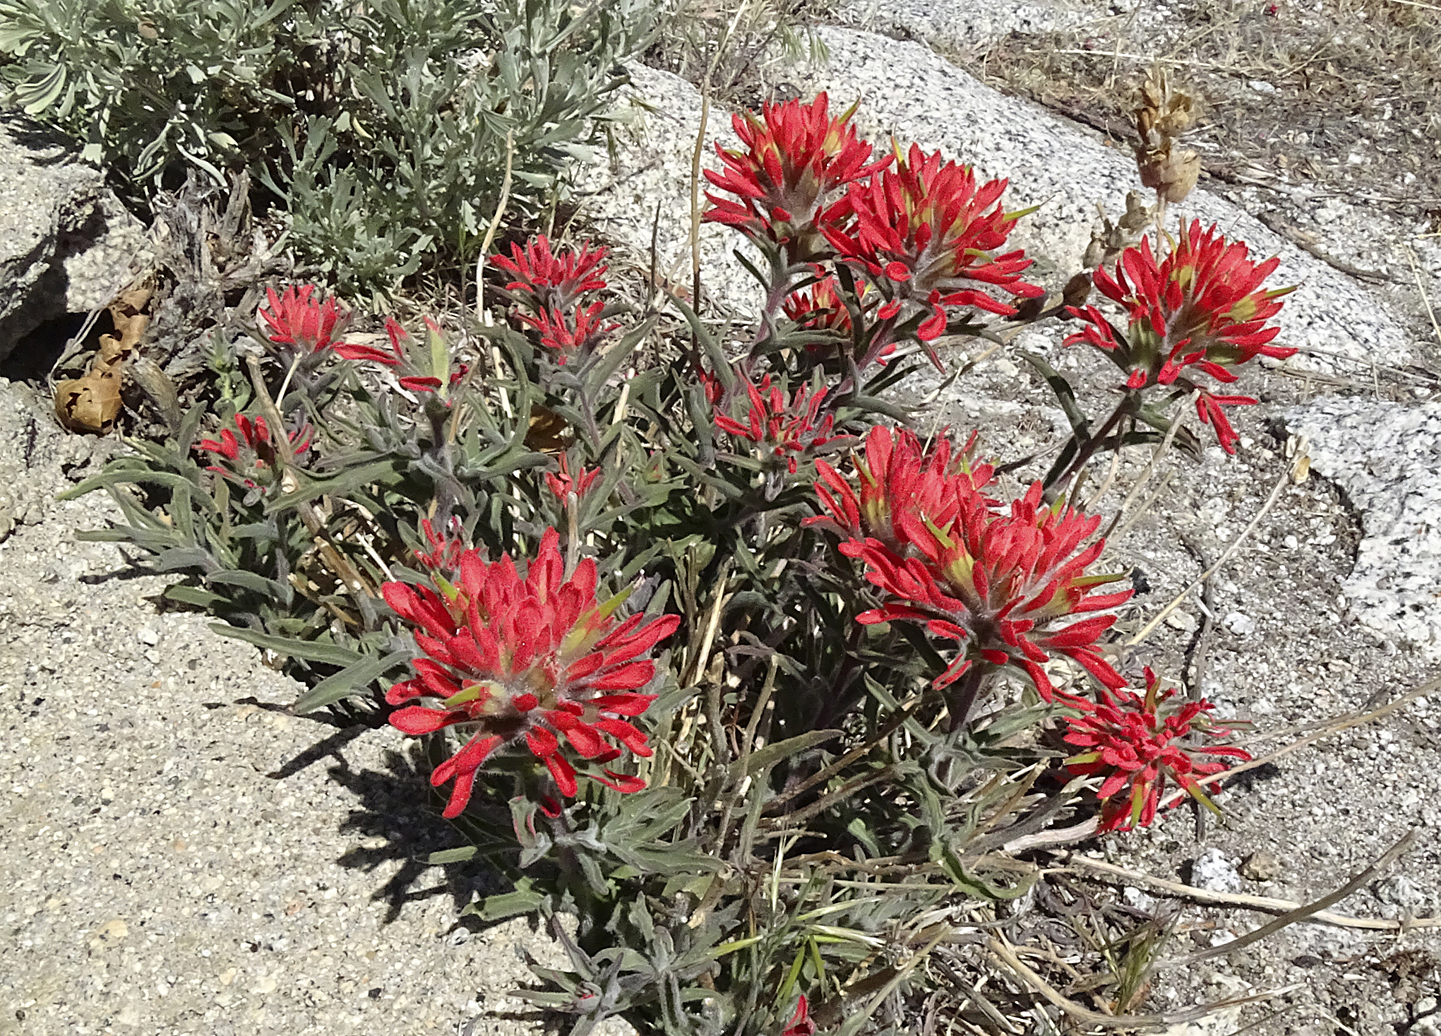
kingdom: Plantae
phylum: Tracheophyta
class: Magnoliopsida
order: Lamiales
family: Orobanchaceae
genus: Castilleja
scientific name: Castilleja chromosa
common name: Desert paintbrush
